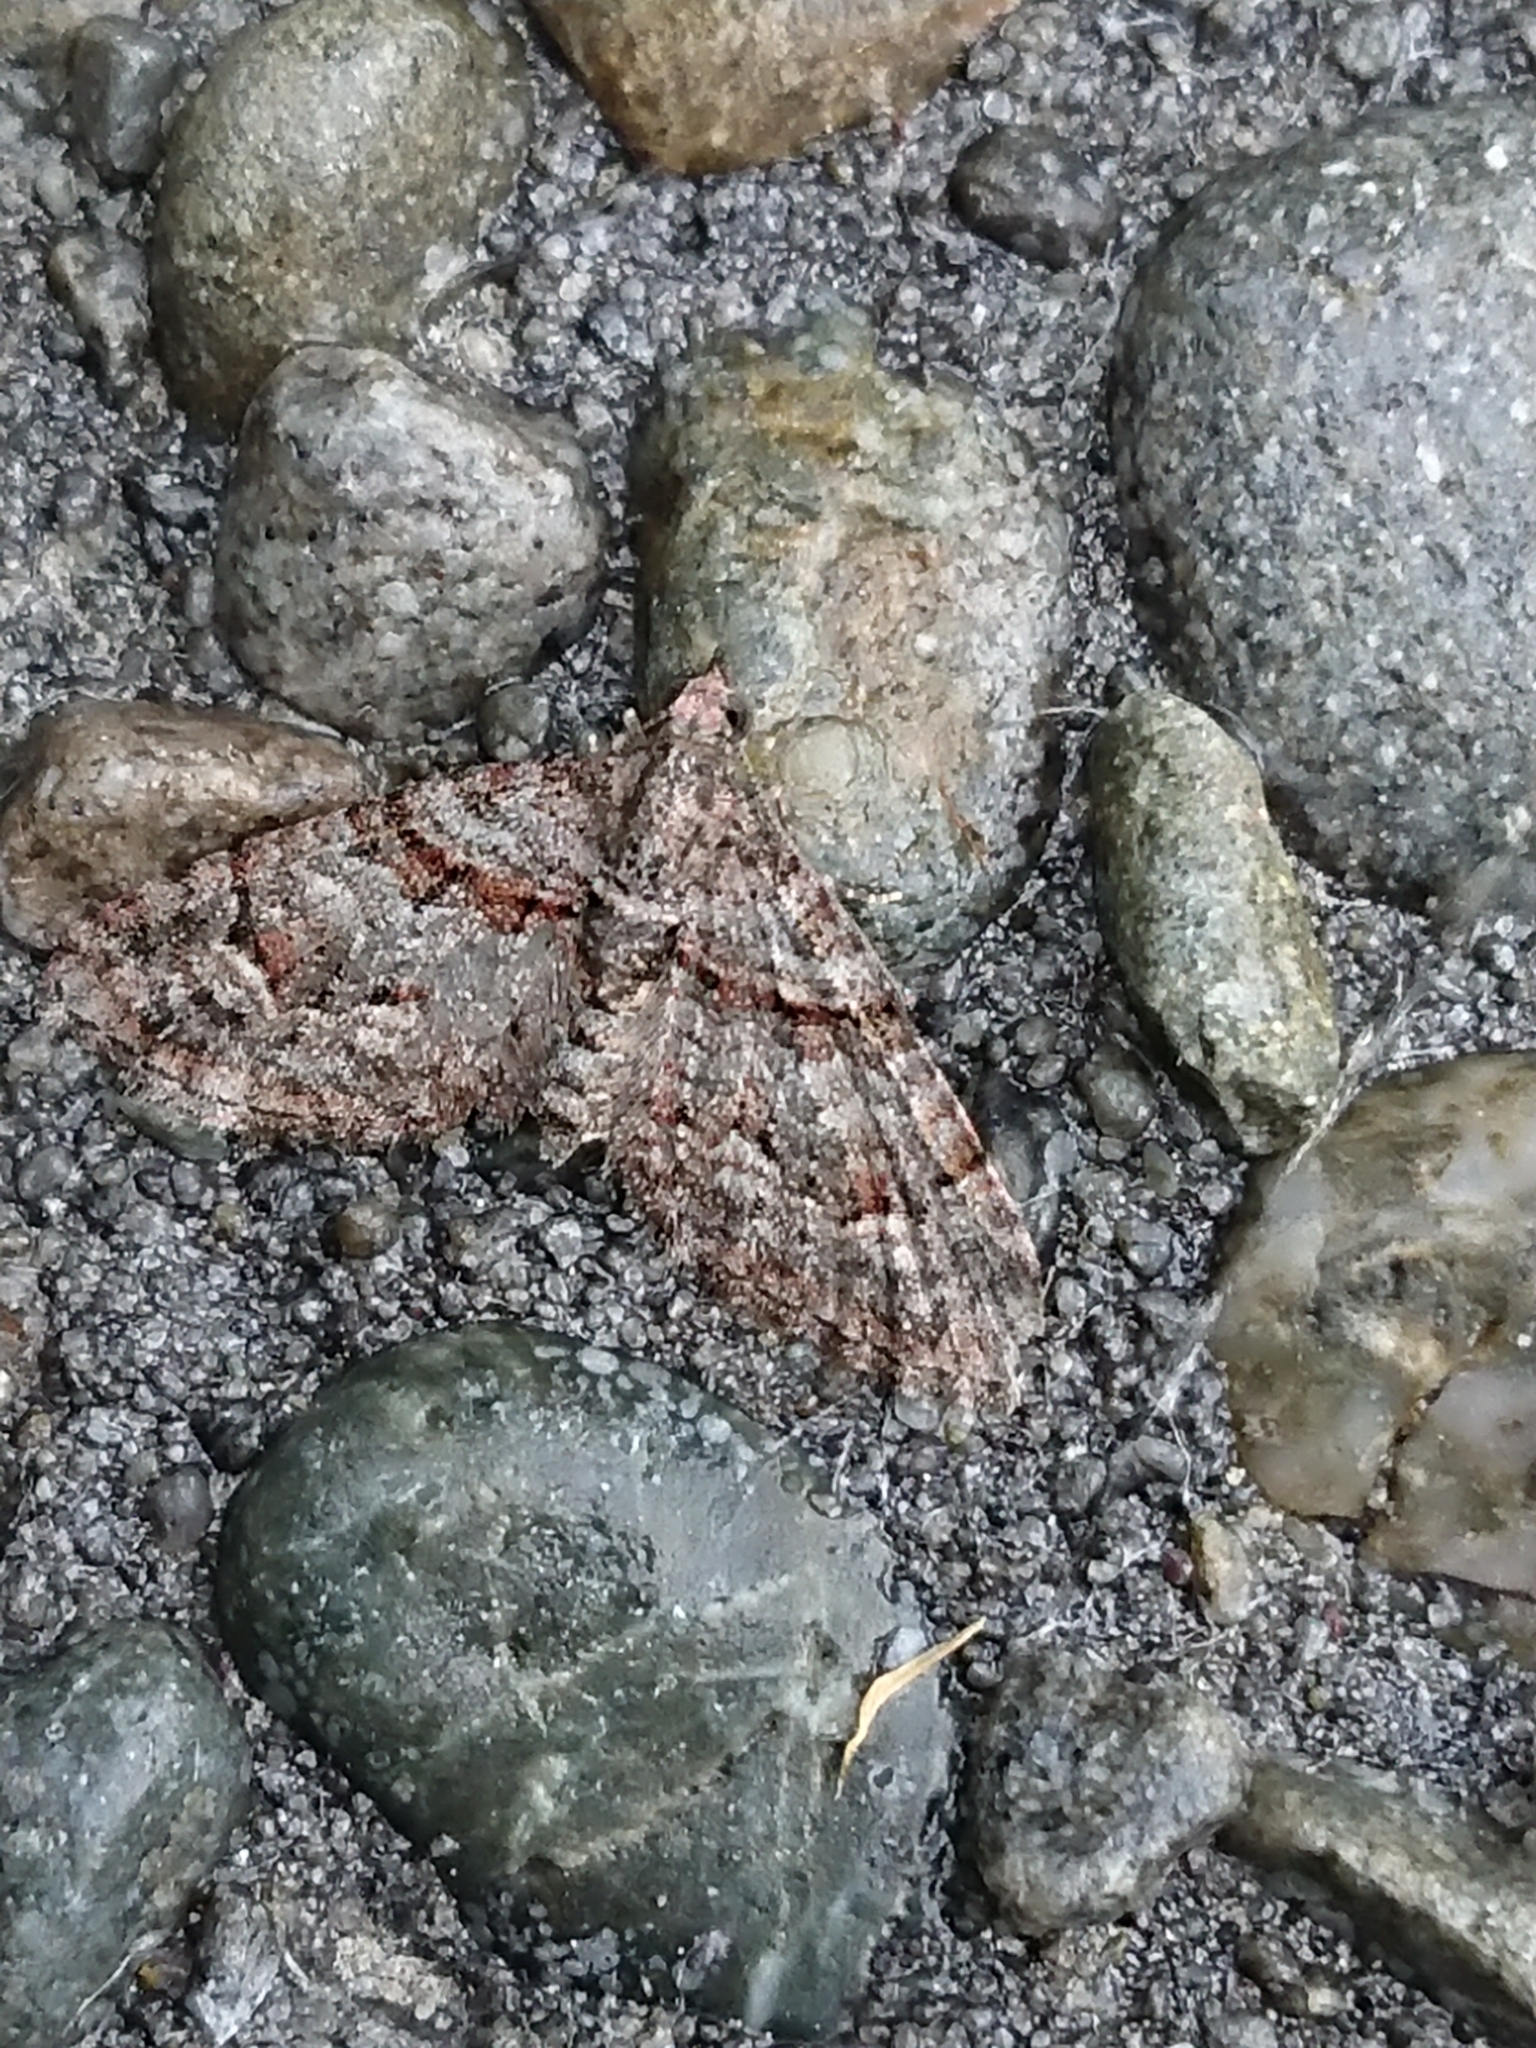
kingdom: Animalia
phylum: Arthropoda
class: Insecta
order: Lepidoptera
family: Geometridae
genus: Phrissogonus
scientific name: Phrissogonus laticostata
